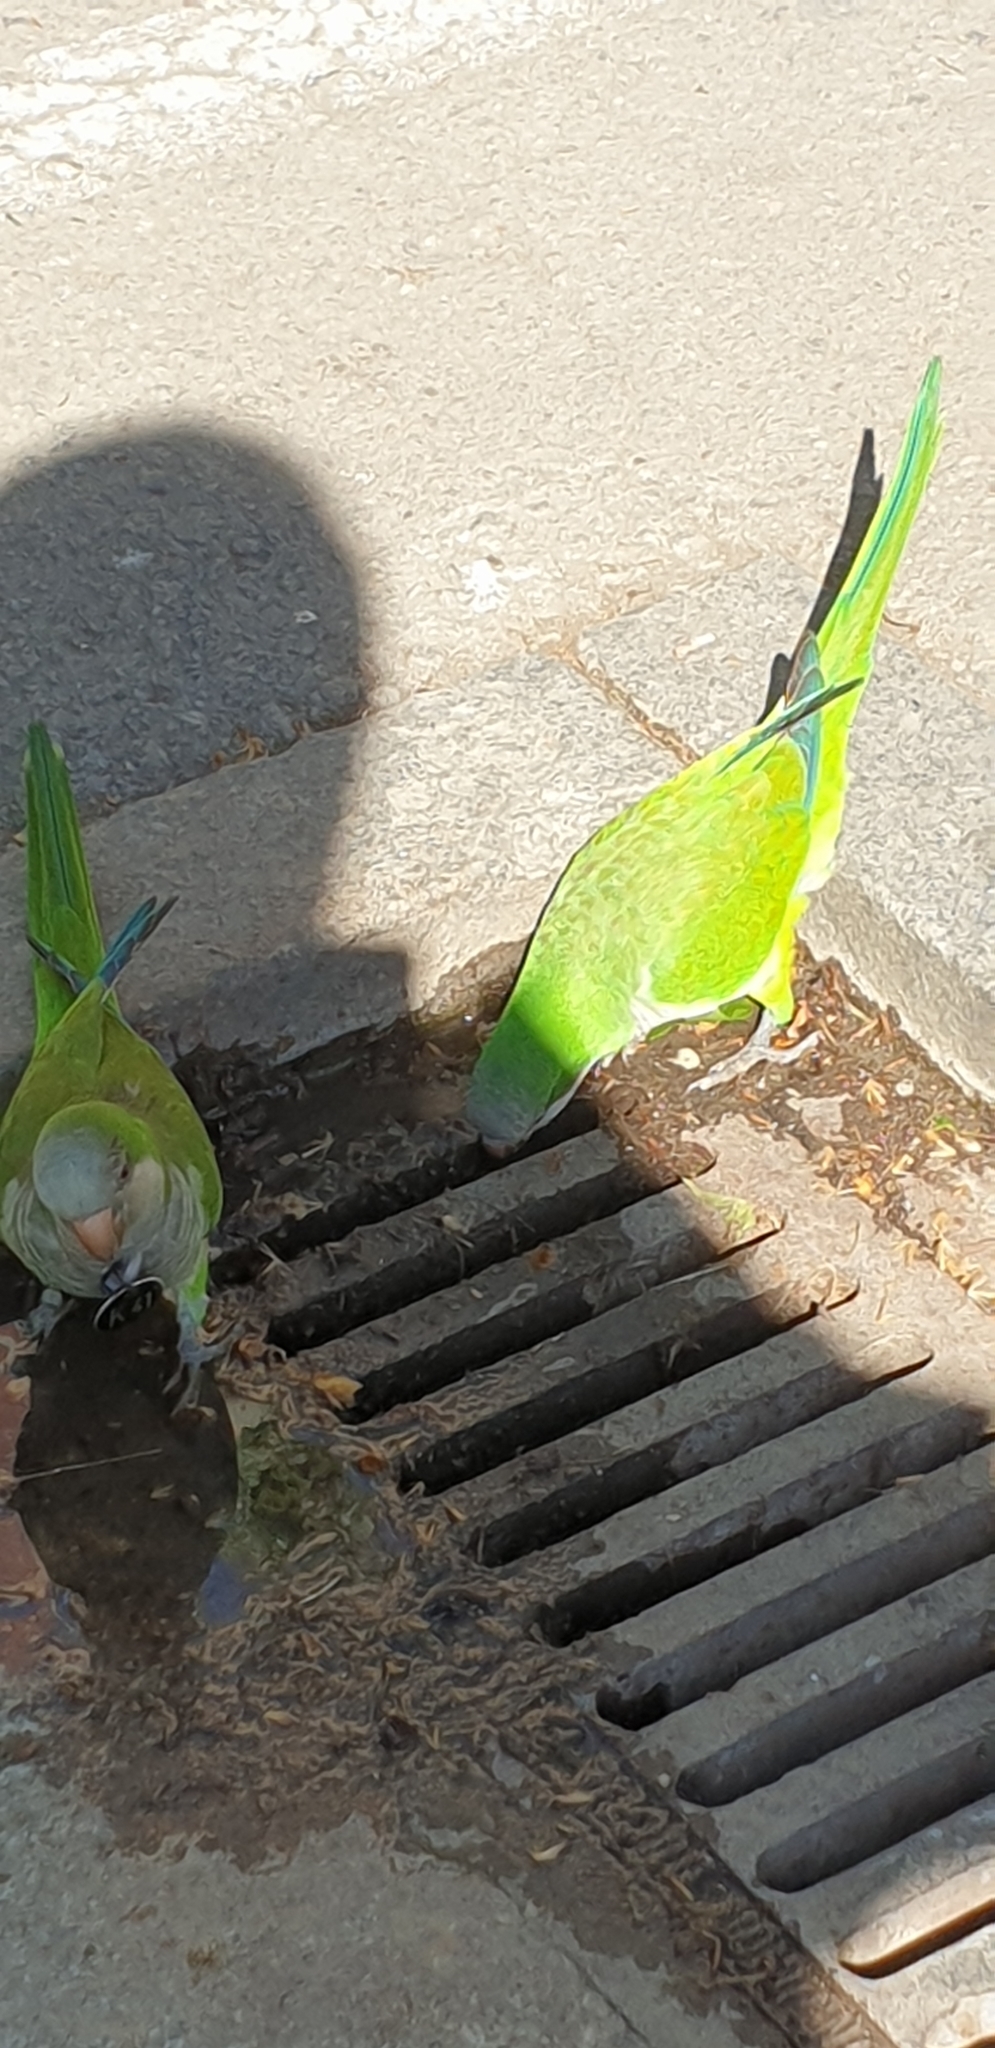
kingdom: Animalia
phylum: Chordata
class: Aves
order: Psittaciformes
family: Psittacidae
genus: Myiopsitta
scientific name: Myiopsitta monachus
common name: Monk parakeet
